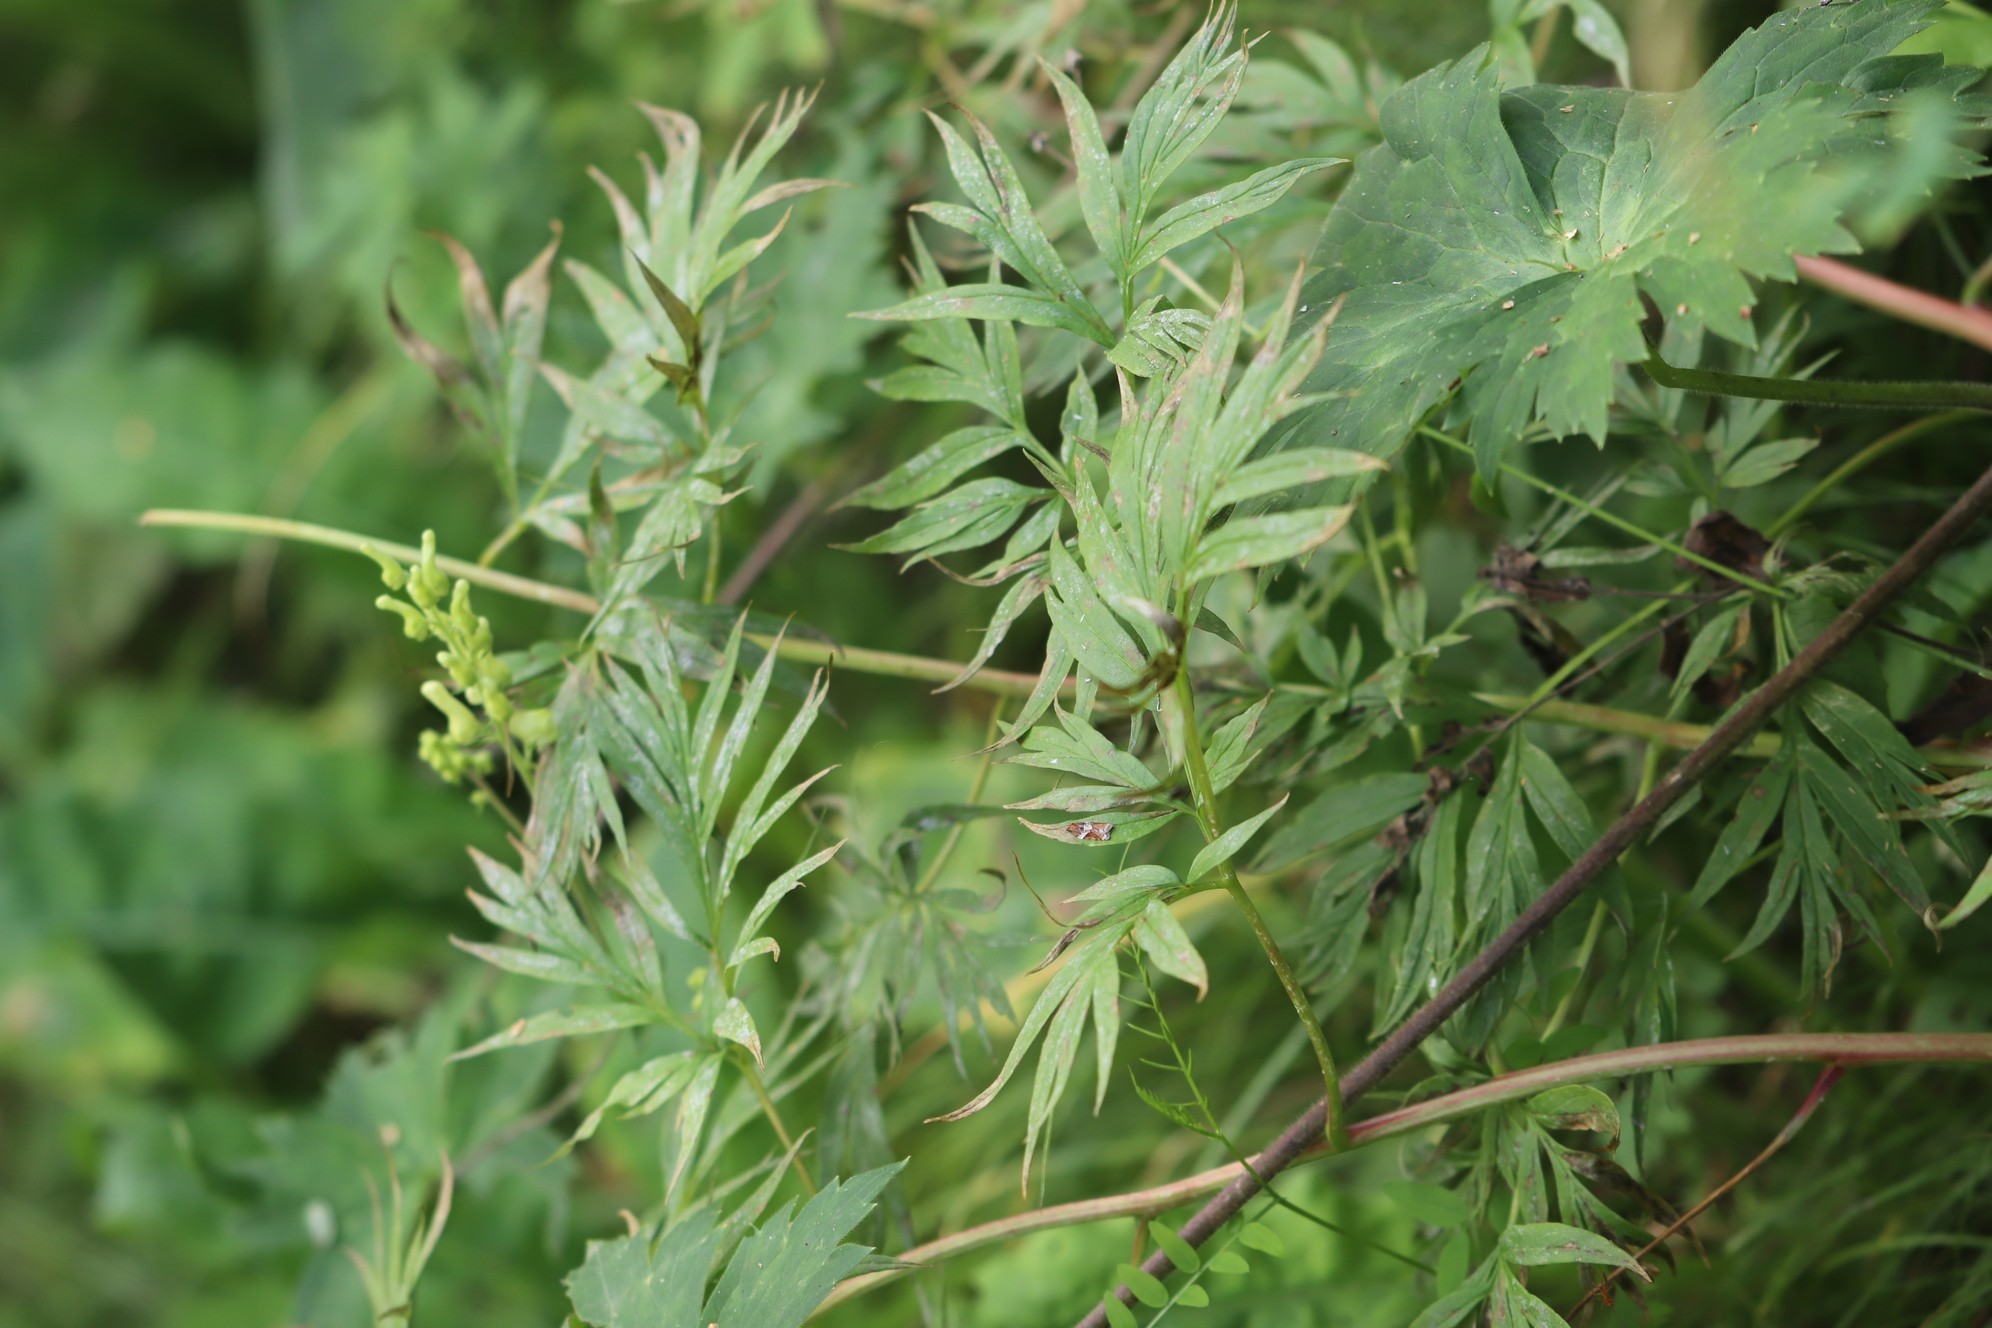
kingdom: Plantae
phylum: Tracheophyta
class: Magnoliopsida
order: Saxifragales
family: Paeoniaceae
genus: Paeonia
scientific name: Paeonia anomala
